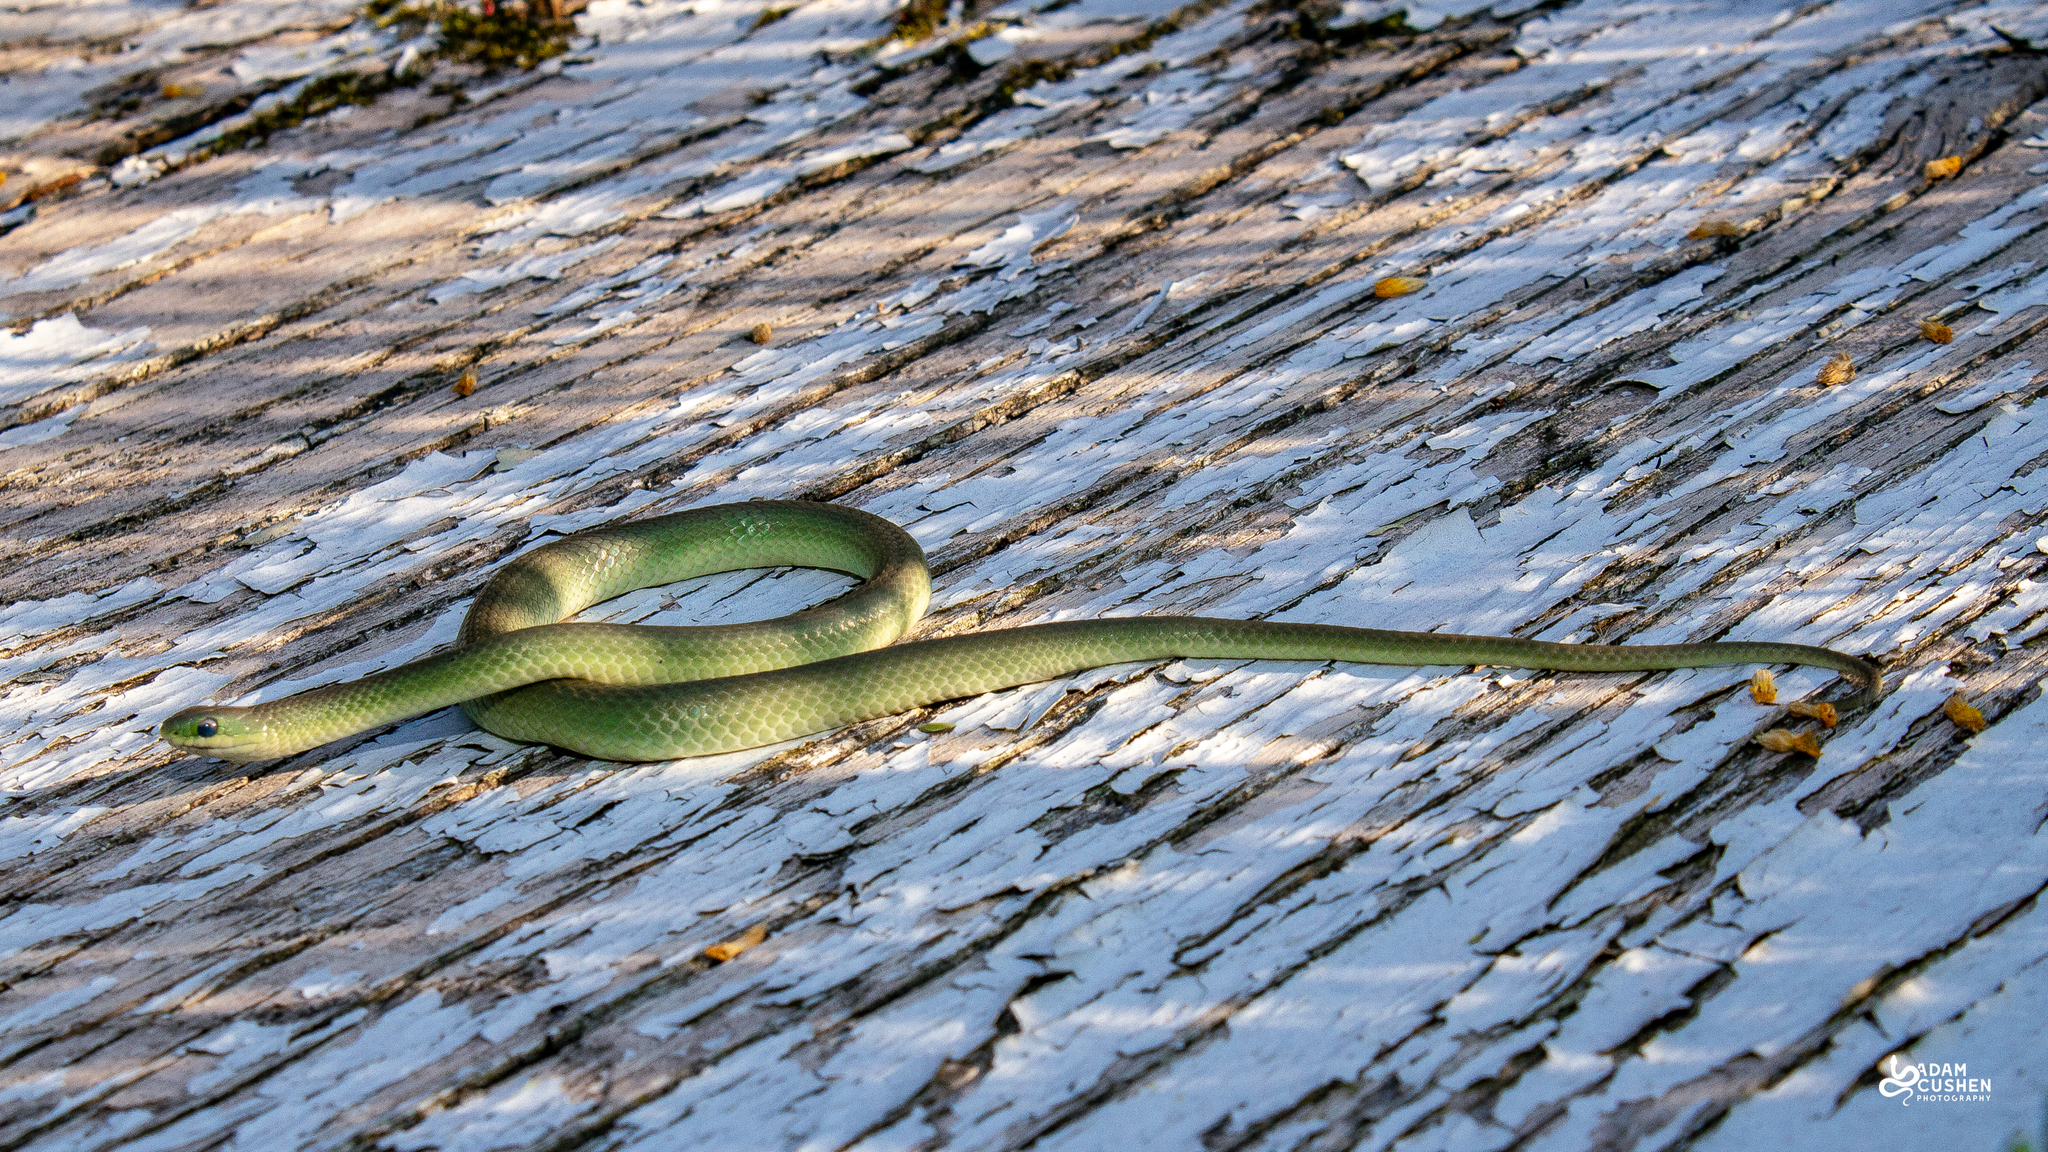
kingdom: Animalia
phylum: Chordata
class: Squamata
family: Colubridae
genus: Opheodrys
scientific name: Opheodrys vernalis
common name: Smooth green snake
